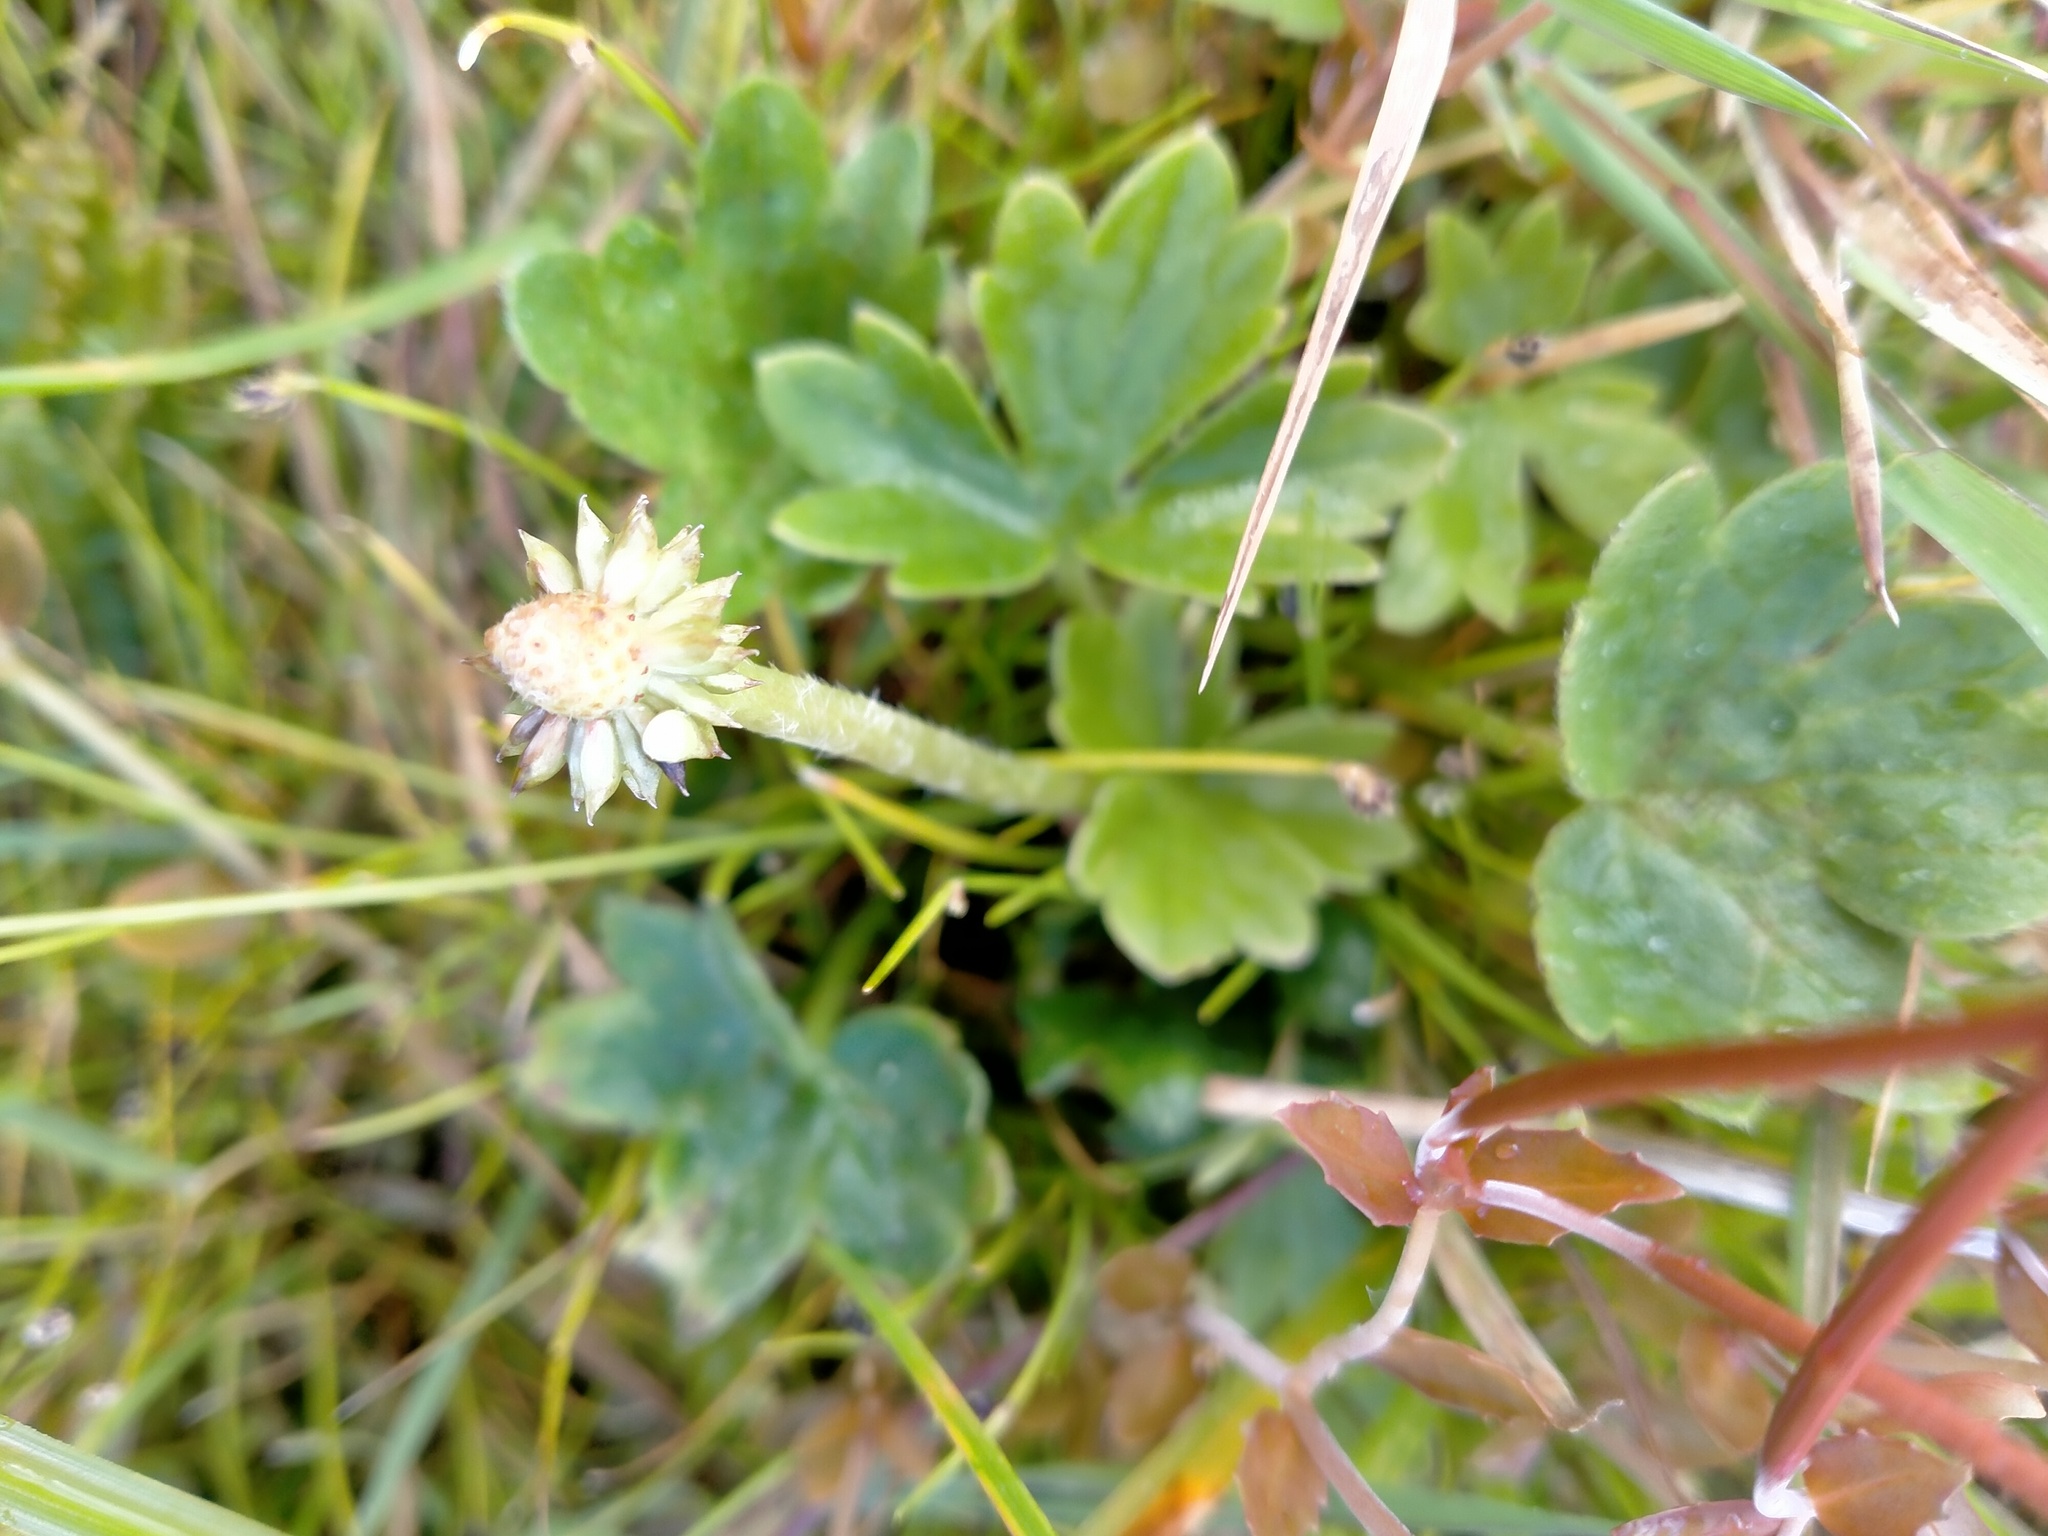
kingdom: Plantae
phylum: Tracheophyta
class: Magnoliopsida
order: Ranunculales
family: Ranunculaceae
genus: Ranunculus
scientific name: Ranunculus subscaposus
